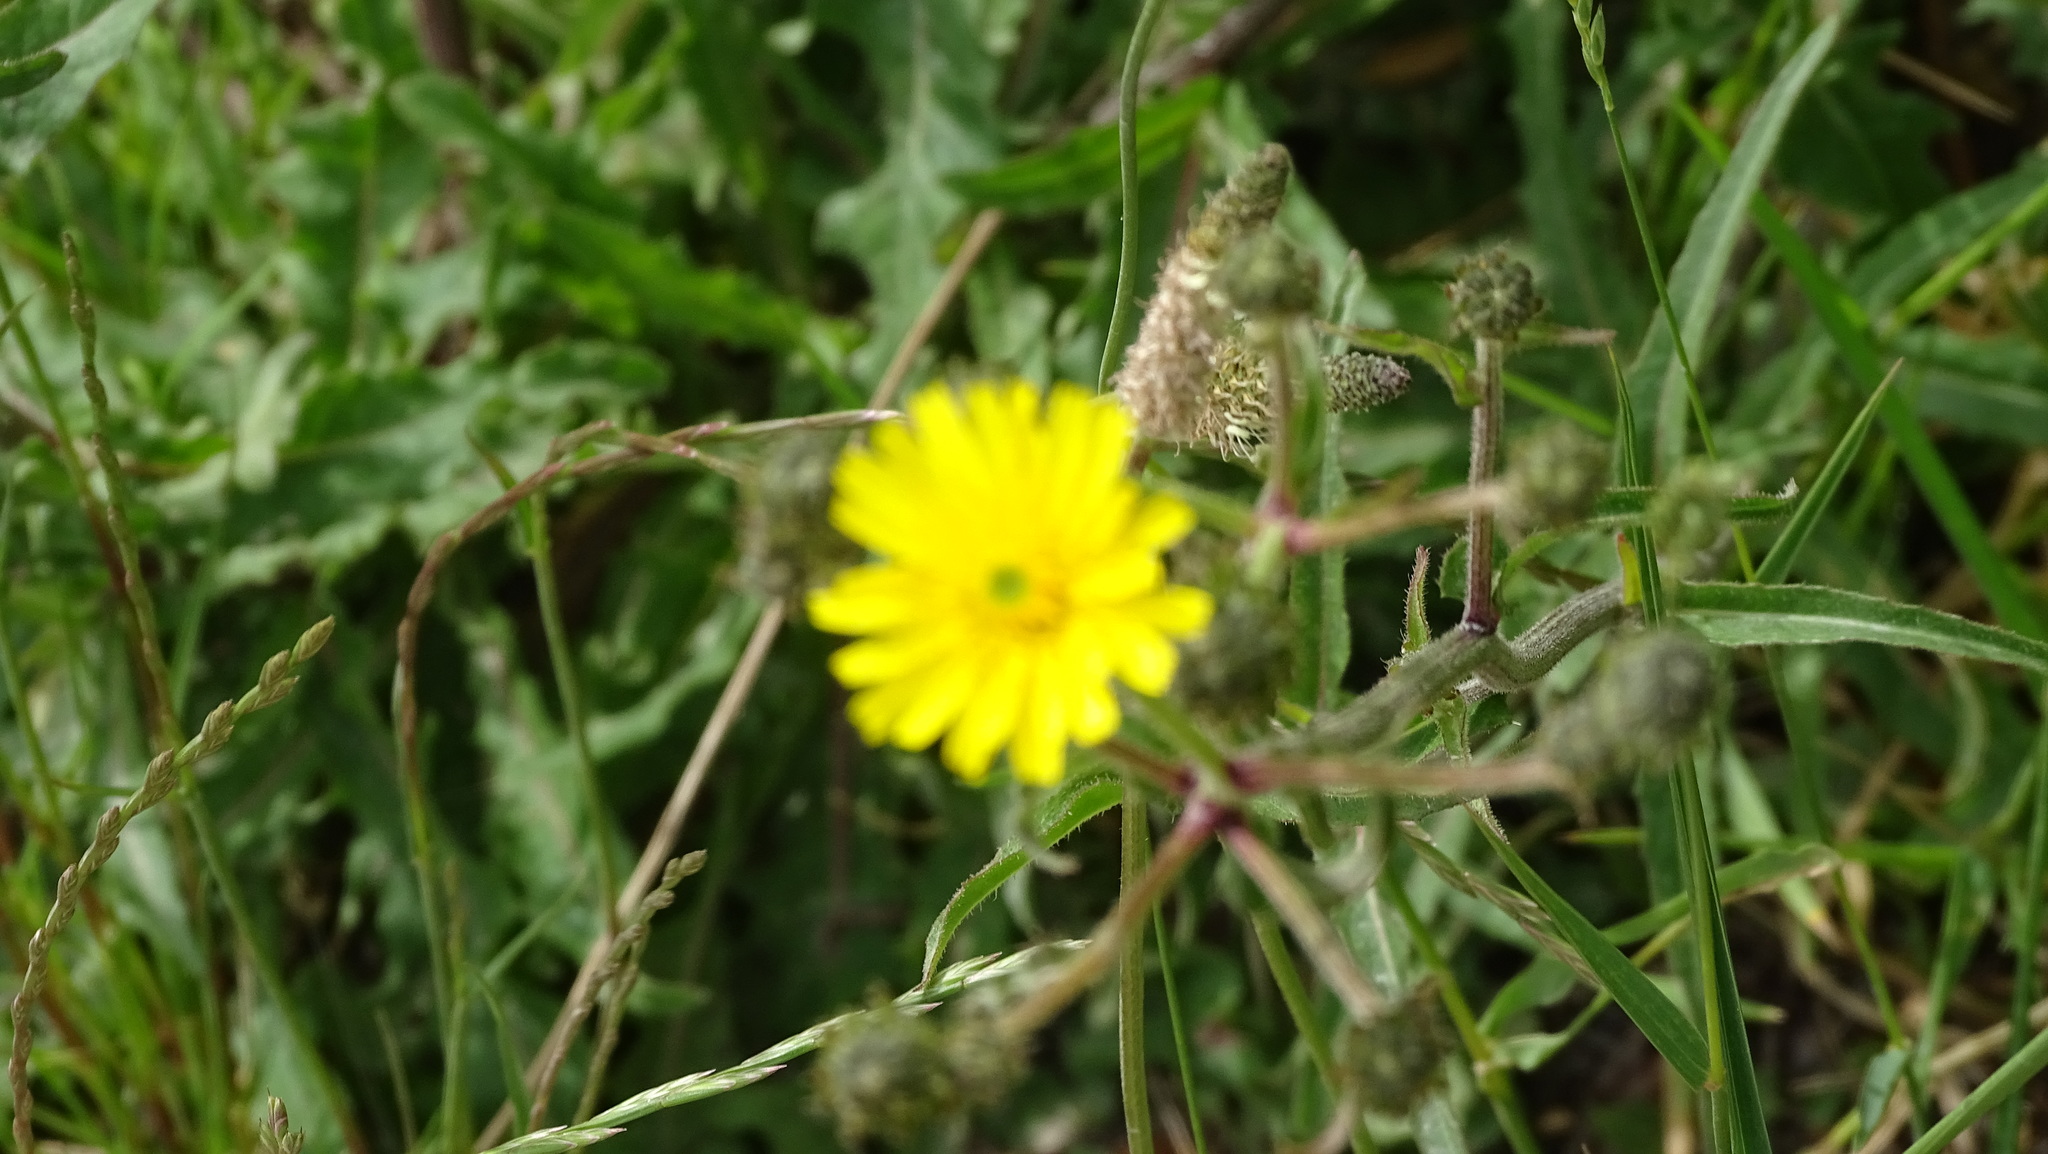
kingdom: Plantae
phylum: Tracheophyta
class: Magnoliopsida
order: Asterales
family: Asteraceae
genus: Picris
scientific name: Picris hieracioides
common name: Hawkweed oxtongue
